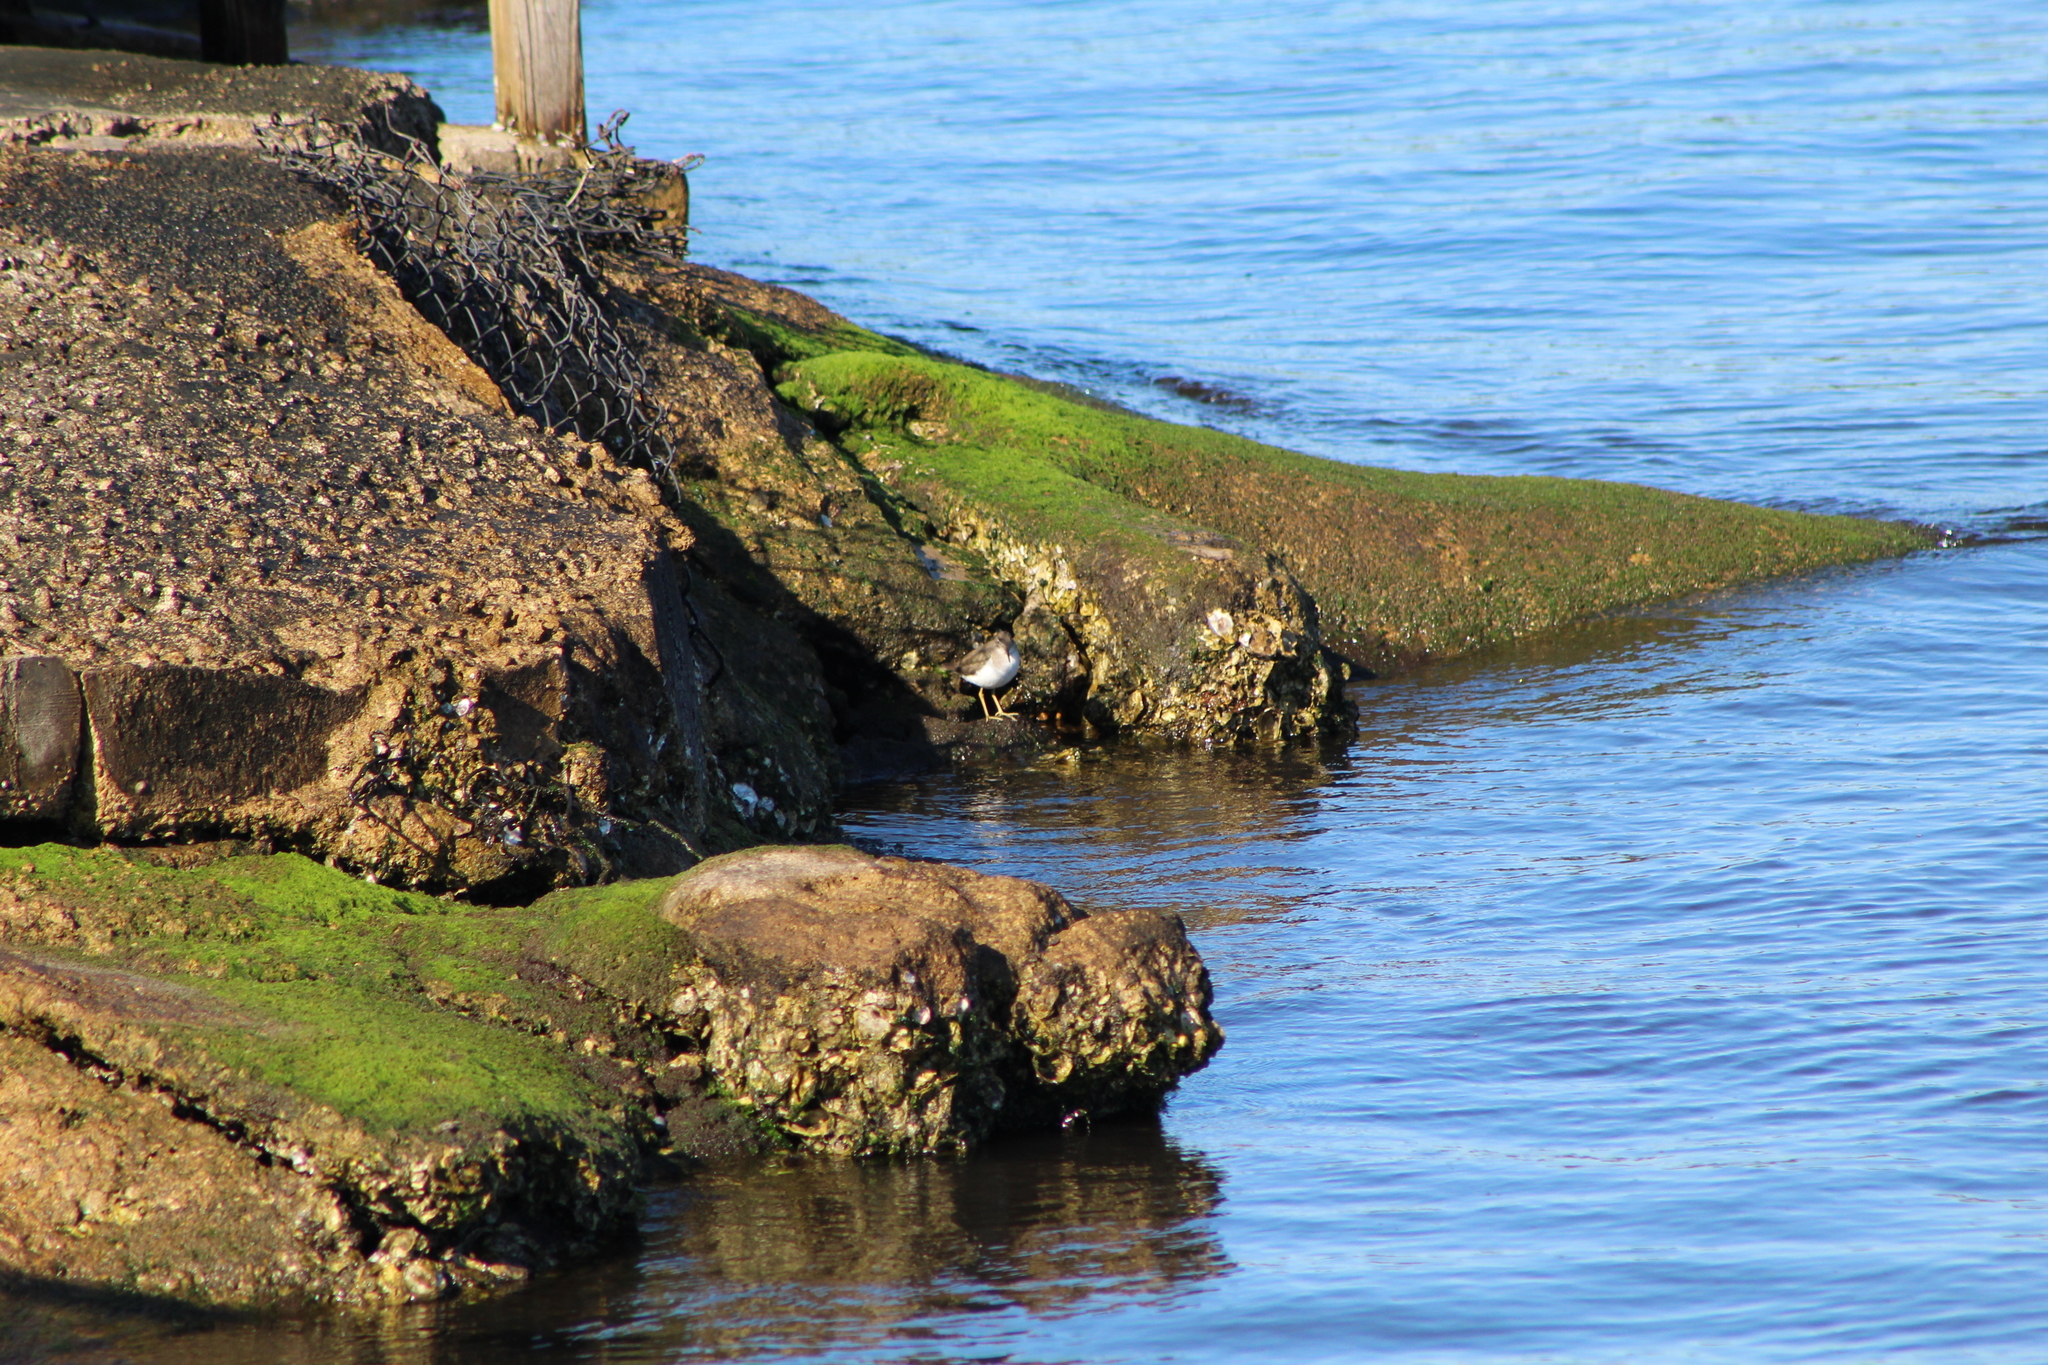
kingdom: Animalia
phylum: Chordata
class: Aves
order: Charadriiformes
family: Scolopacidae
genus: Actitis
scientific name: Actitis macularius
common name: Spotted sandpiper
